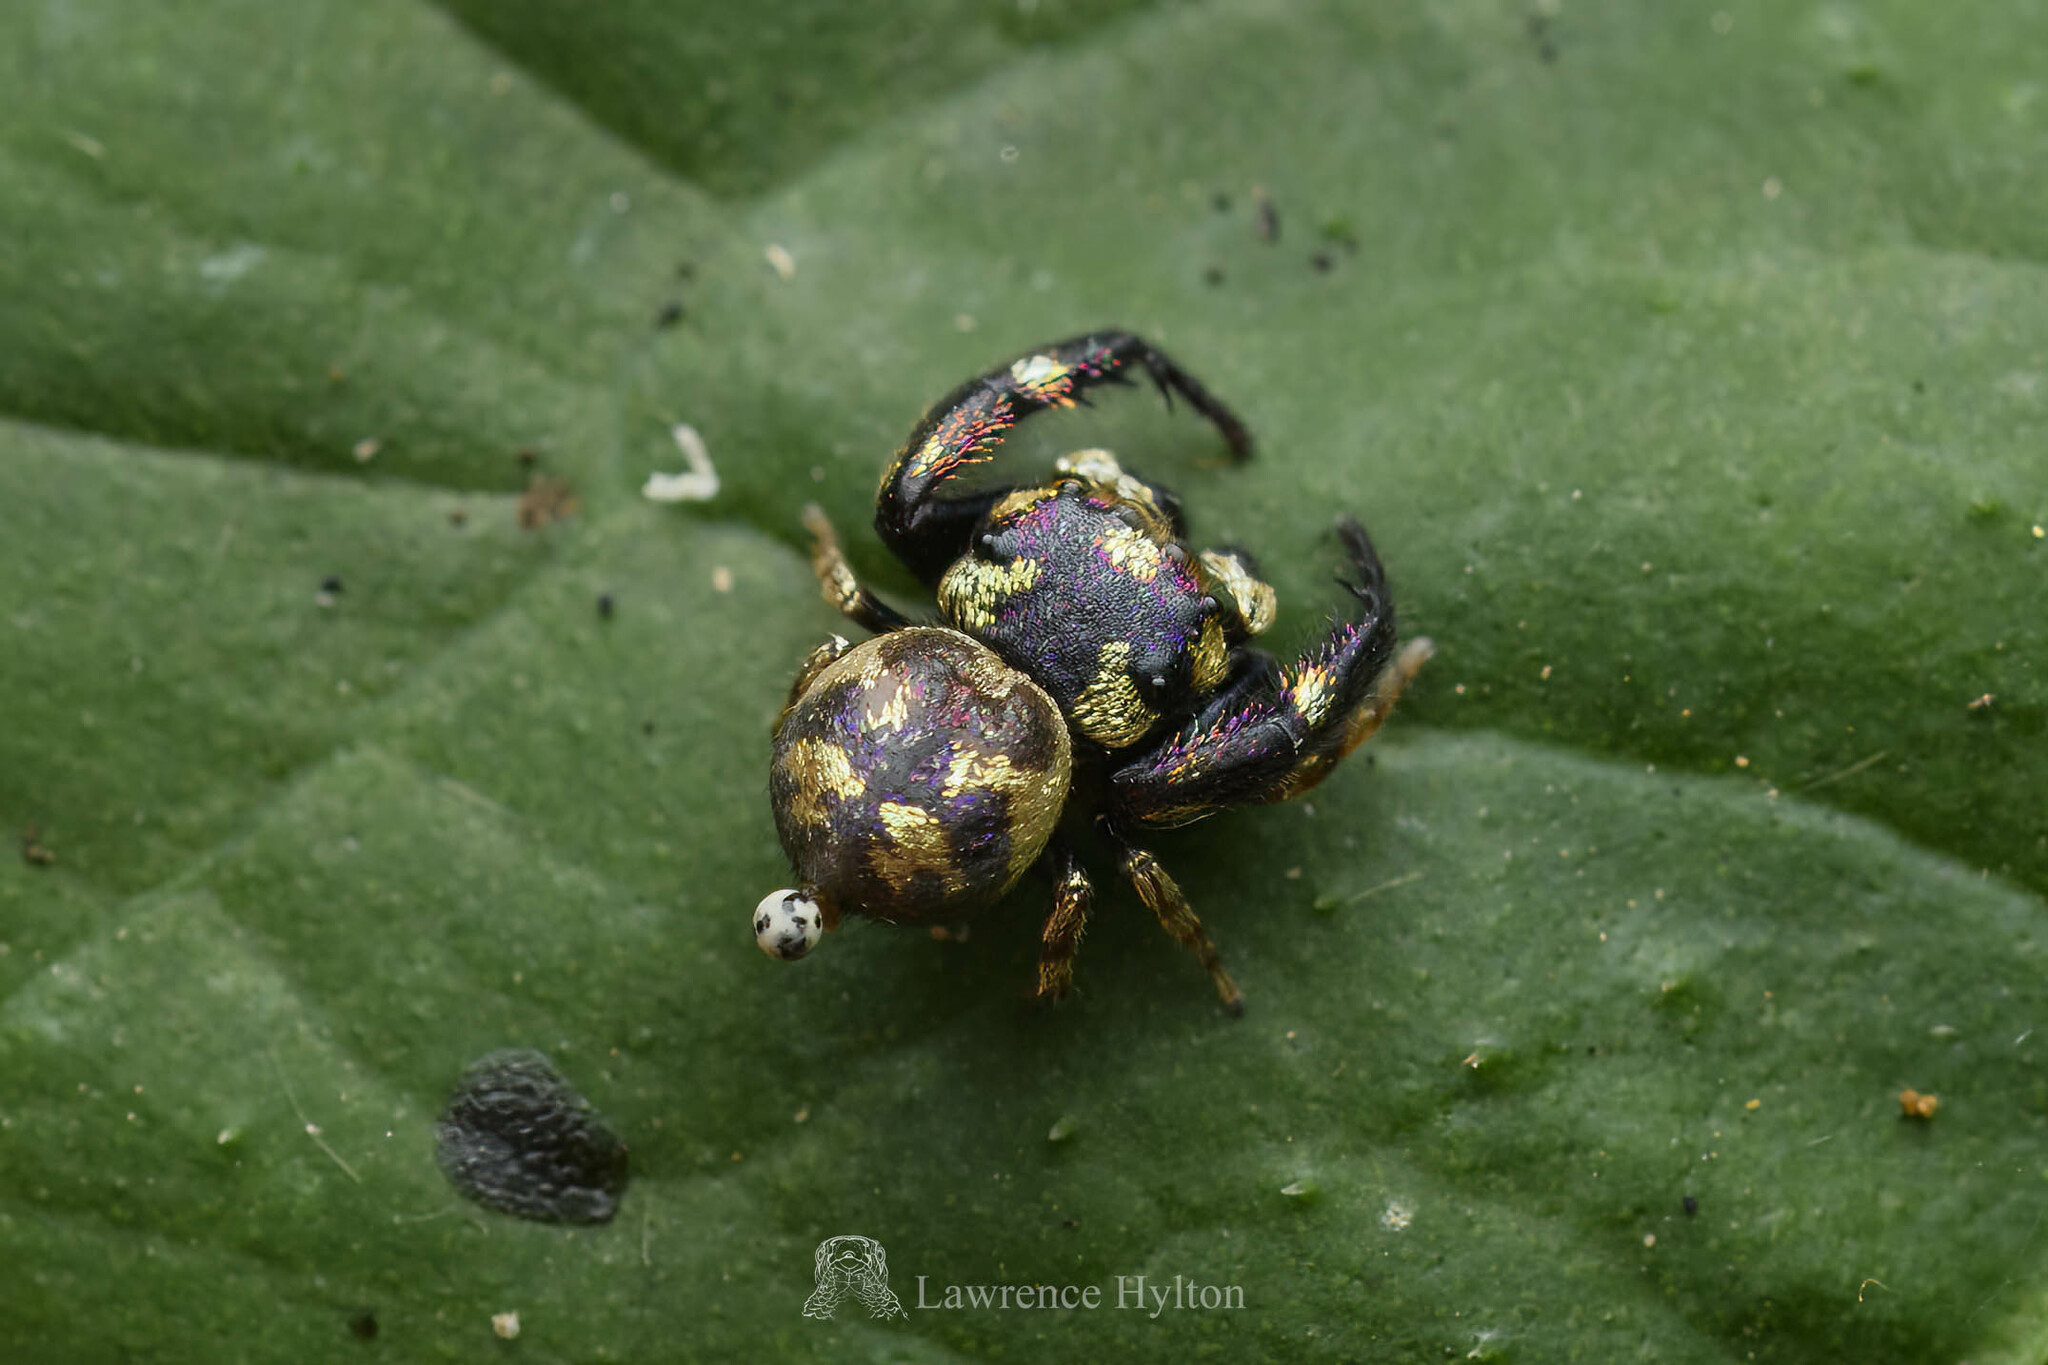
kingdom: Animalia
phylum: Arthropoda
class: Arachnida
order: Araneae
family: Salticidae
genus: Irura
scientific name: Irura bidenticulata
